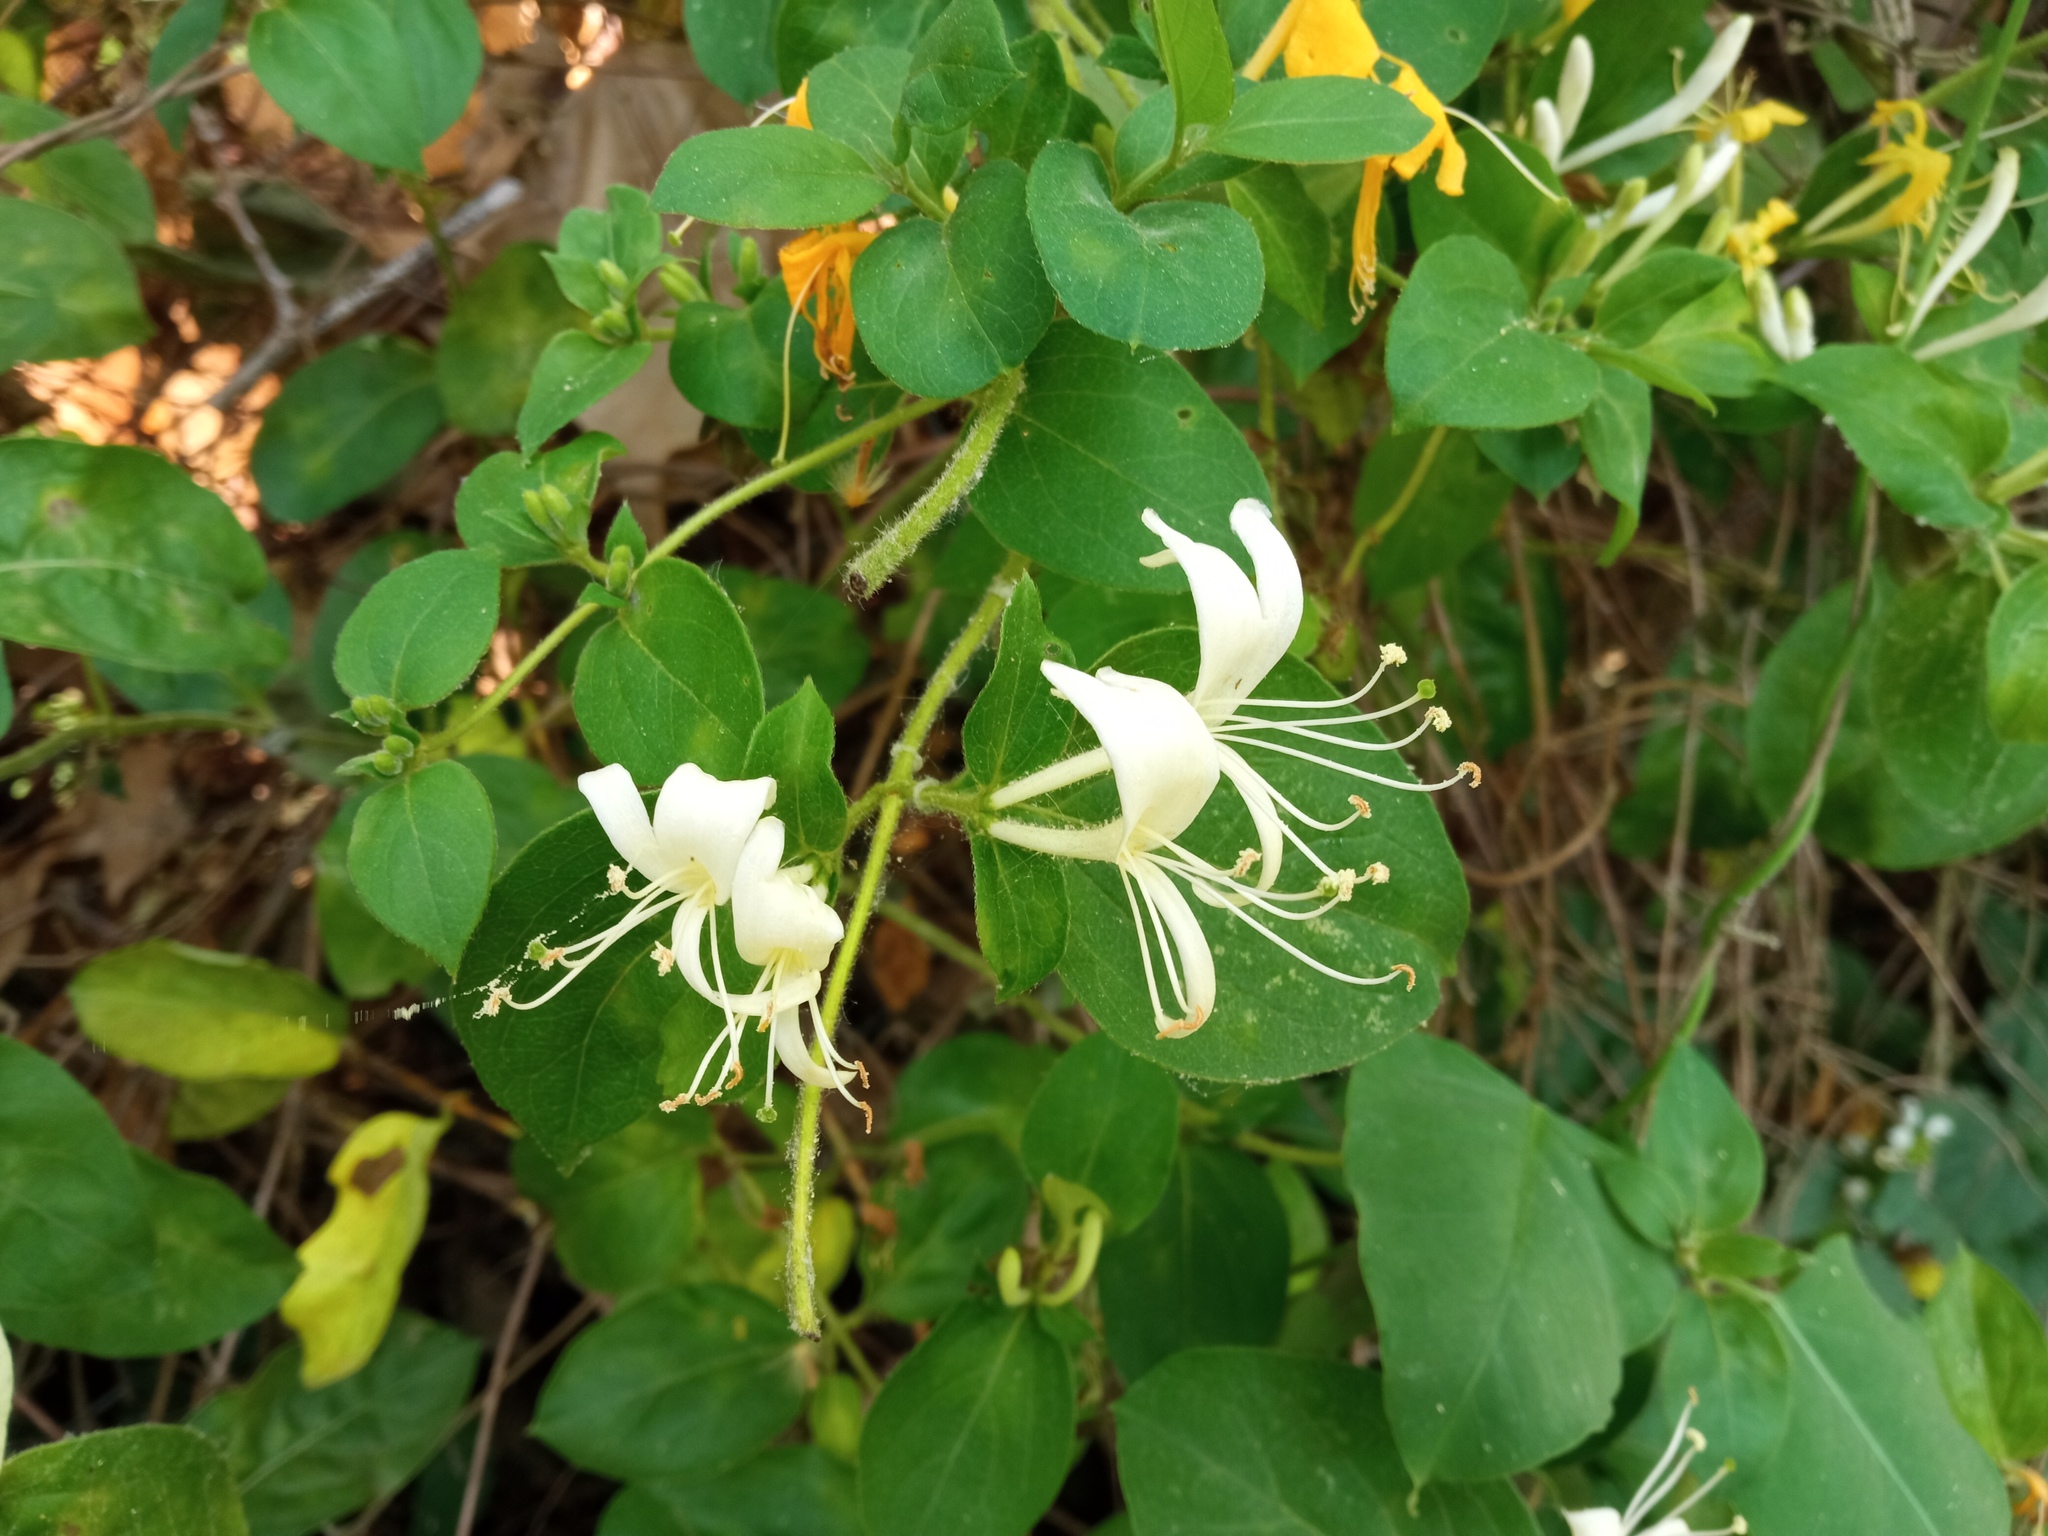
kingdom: Plantae
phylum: Tracheophyta
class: Magnoliopsida
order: Dipsacales
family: Caprifoliaceae
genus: Lonicera
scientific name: Lonicera japonica
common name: Japanese honeysuckle
